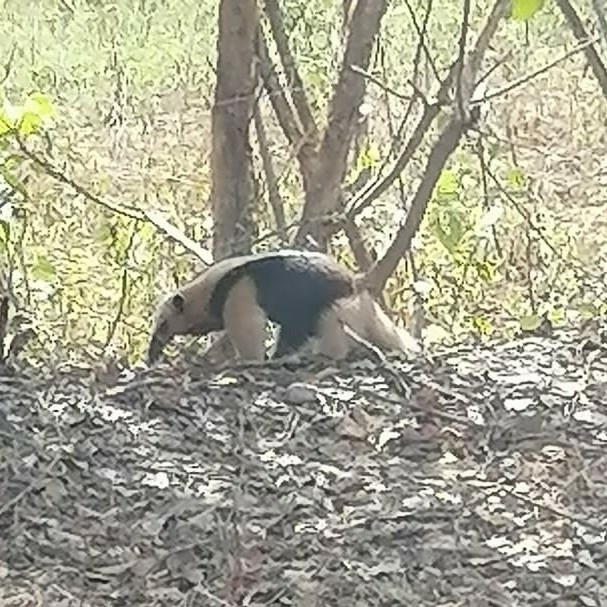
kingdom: Animalia
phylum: Chordata
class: Mammalia
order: Pilosa
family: Myrmecophagidae
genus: Tamandua
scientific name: Tamandua mexicana
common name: Northern tamandua
